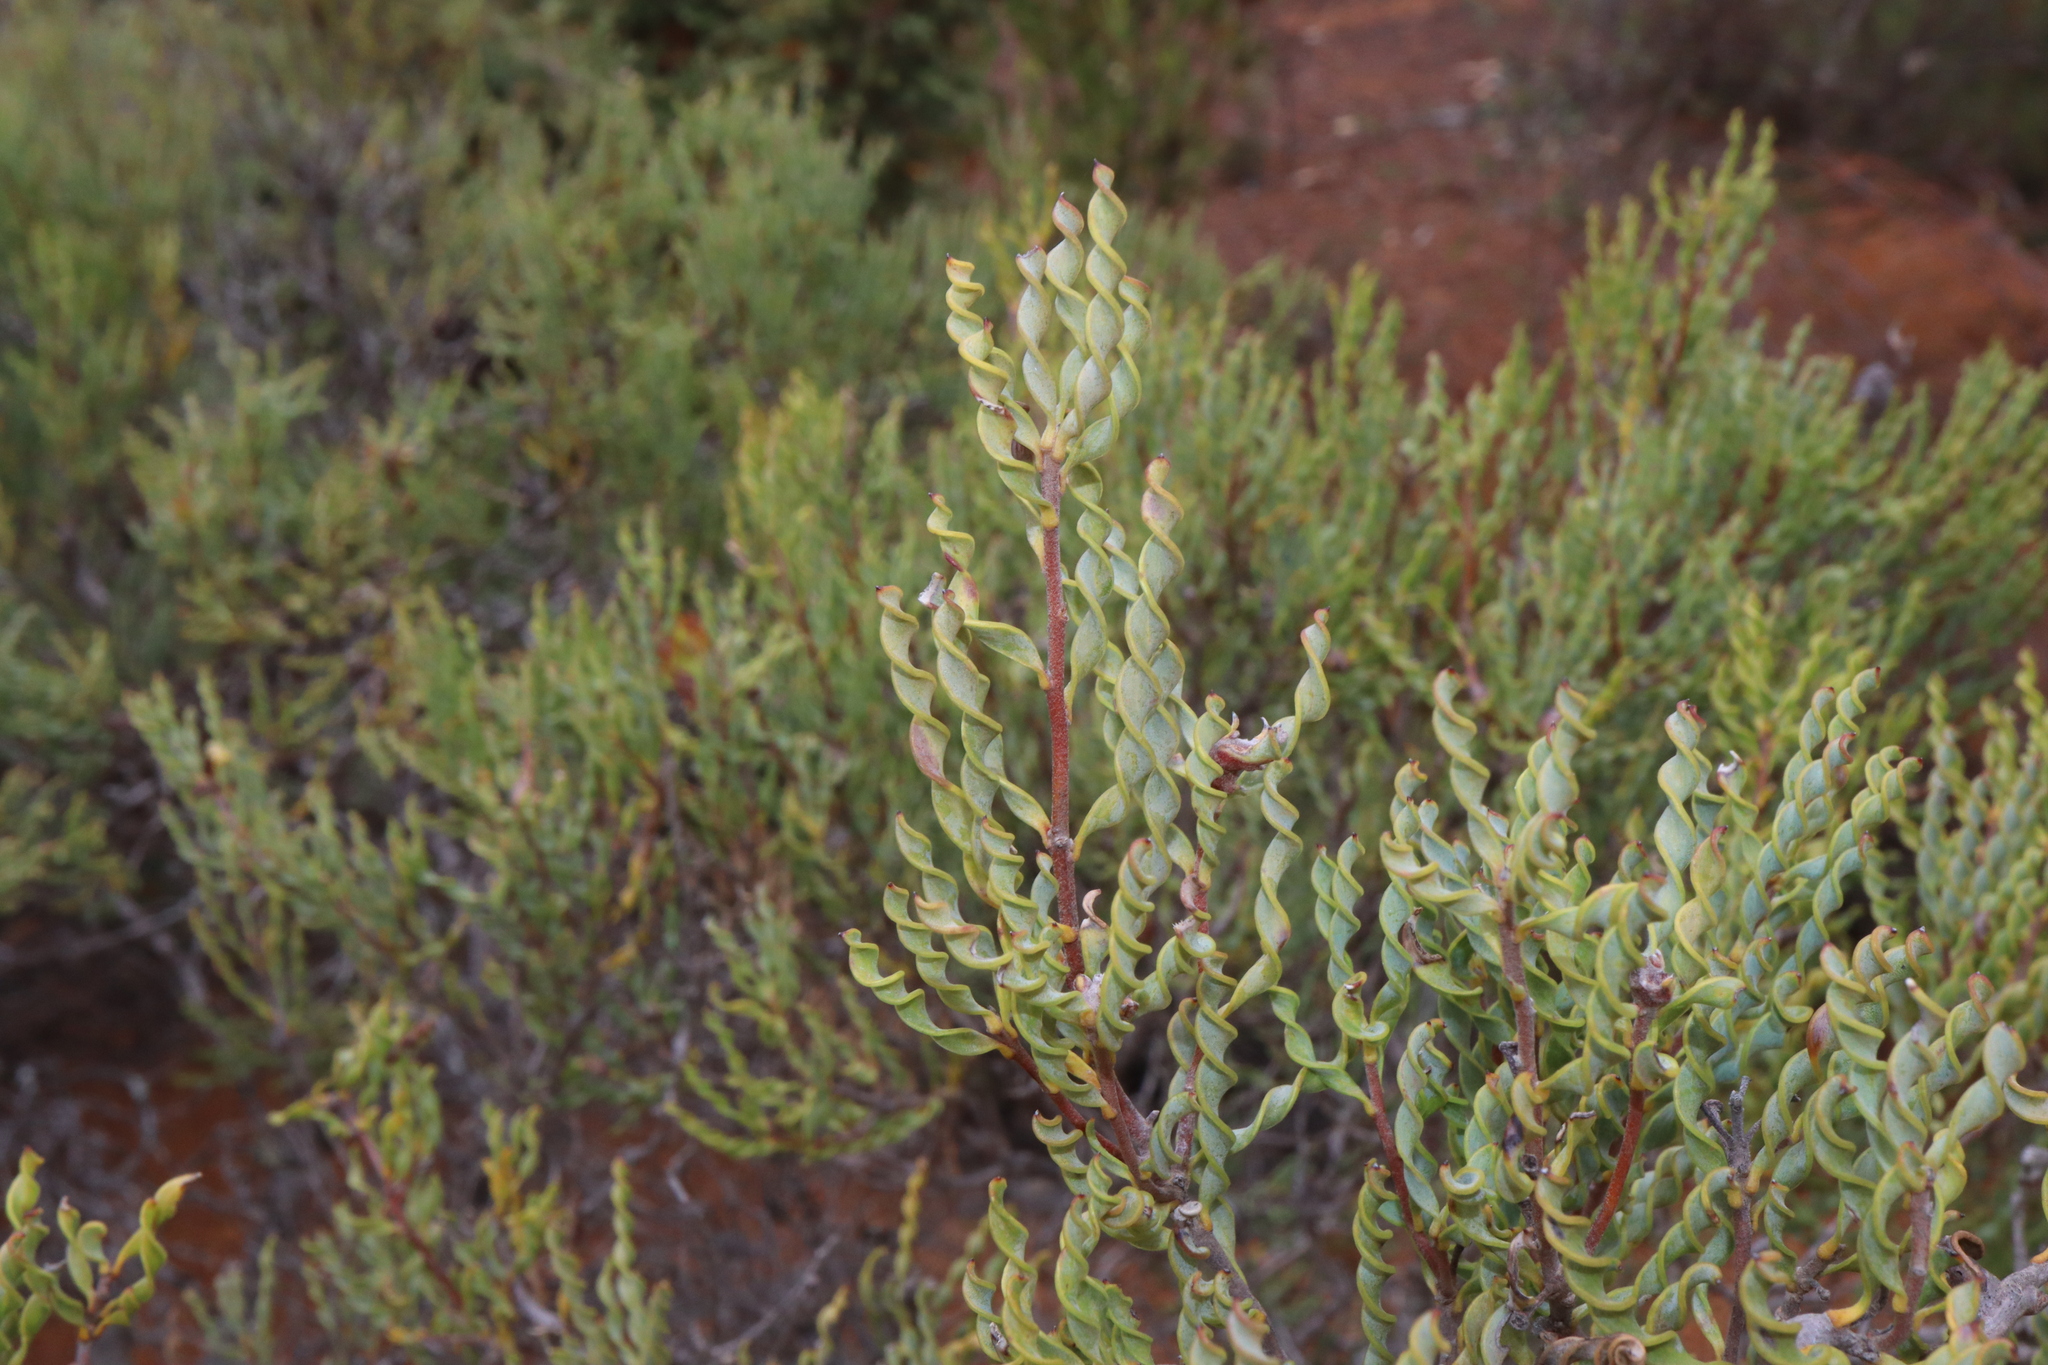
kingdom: Plantae
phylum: Tracheophyta
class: Magnoliopsida
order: Proteales
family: Proteaceae
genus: Persoonia
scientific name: Persoonia helix
